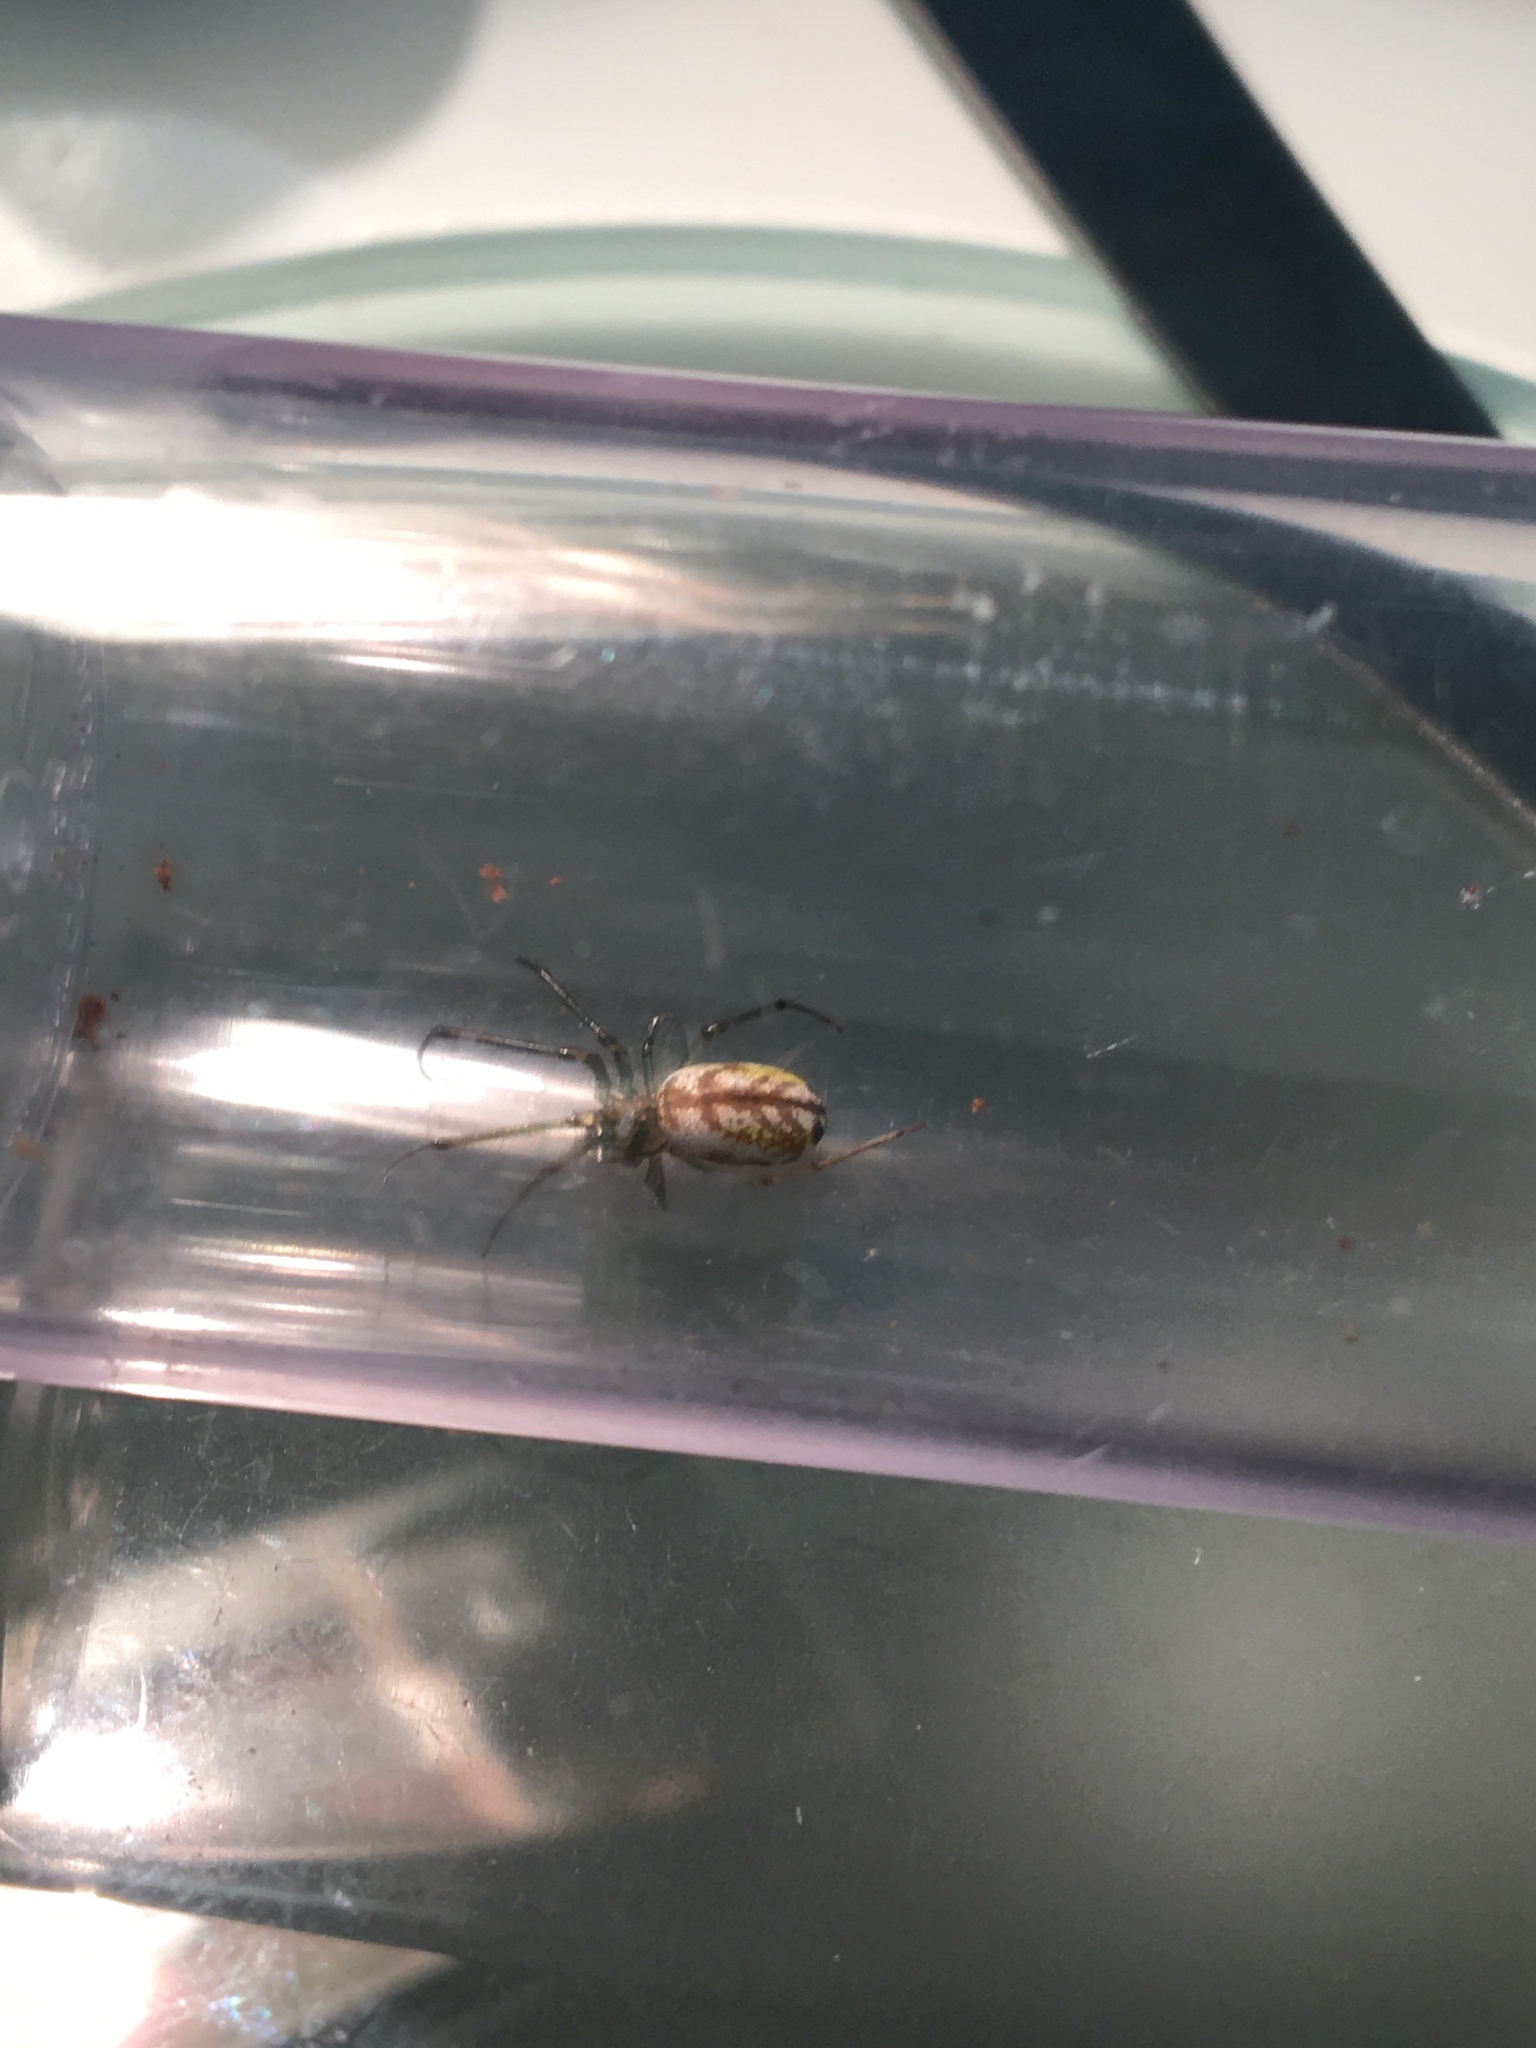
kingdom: Animalia
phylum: Arthropoda
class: Arachnida
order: Araneae
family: Tetragnathidae
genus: Leucauge
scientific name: Leucauge venusta
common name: Longjawed orb weavers
